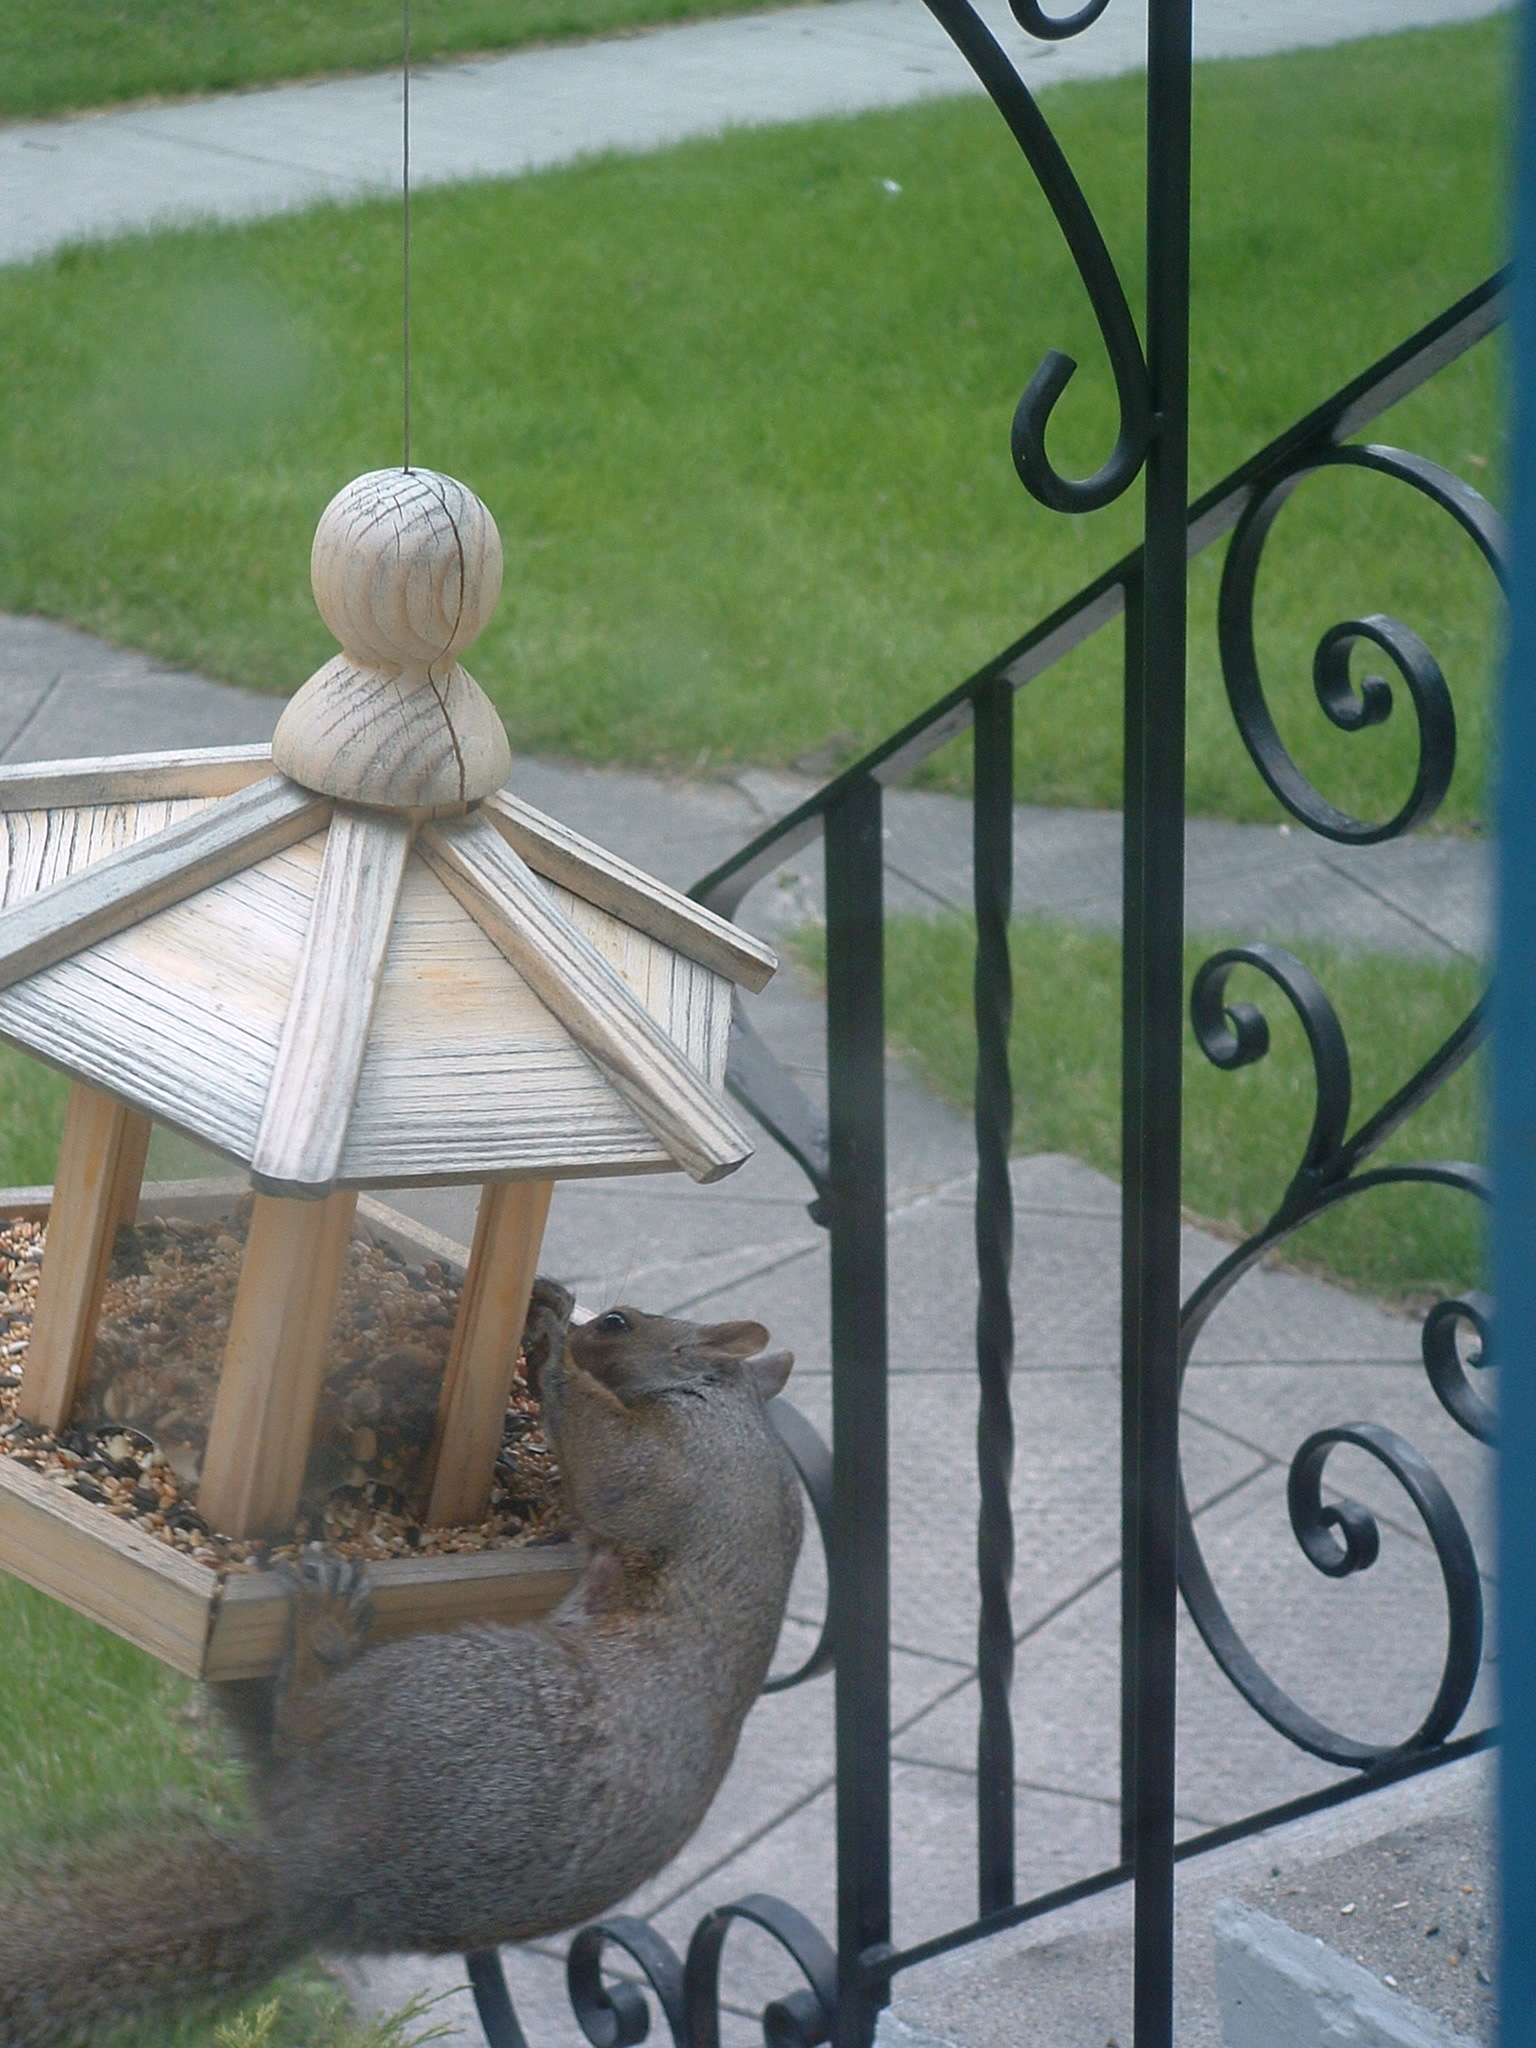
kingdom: Animalia
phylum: Chordata
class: Mammalia
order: Rodentia
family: Sciuridae
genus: Sciurus
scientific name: Sciurus carolinensis
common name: Eastern gray squirrel
